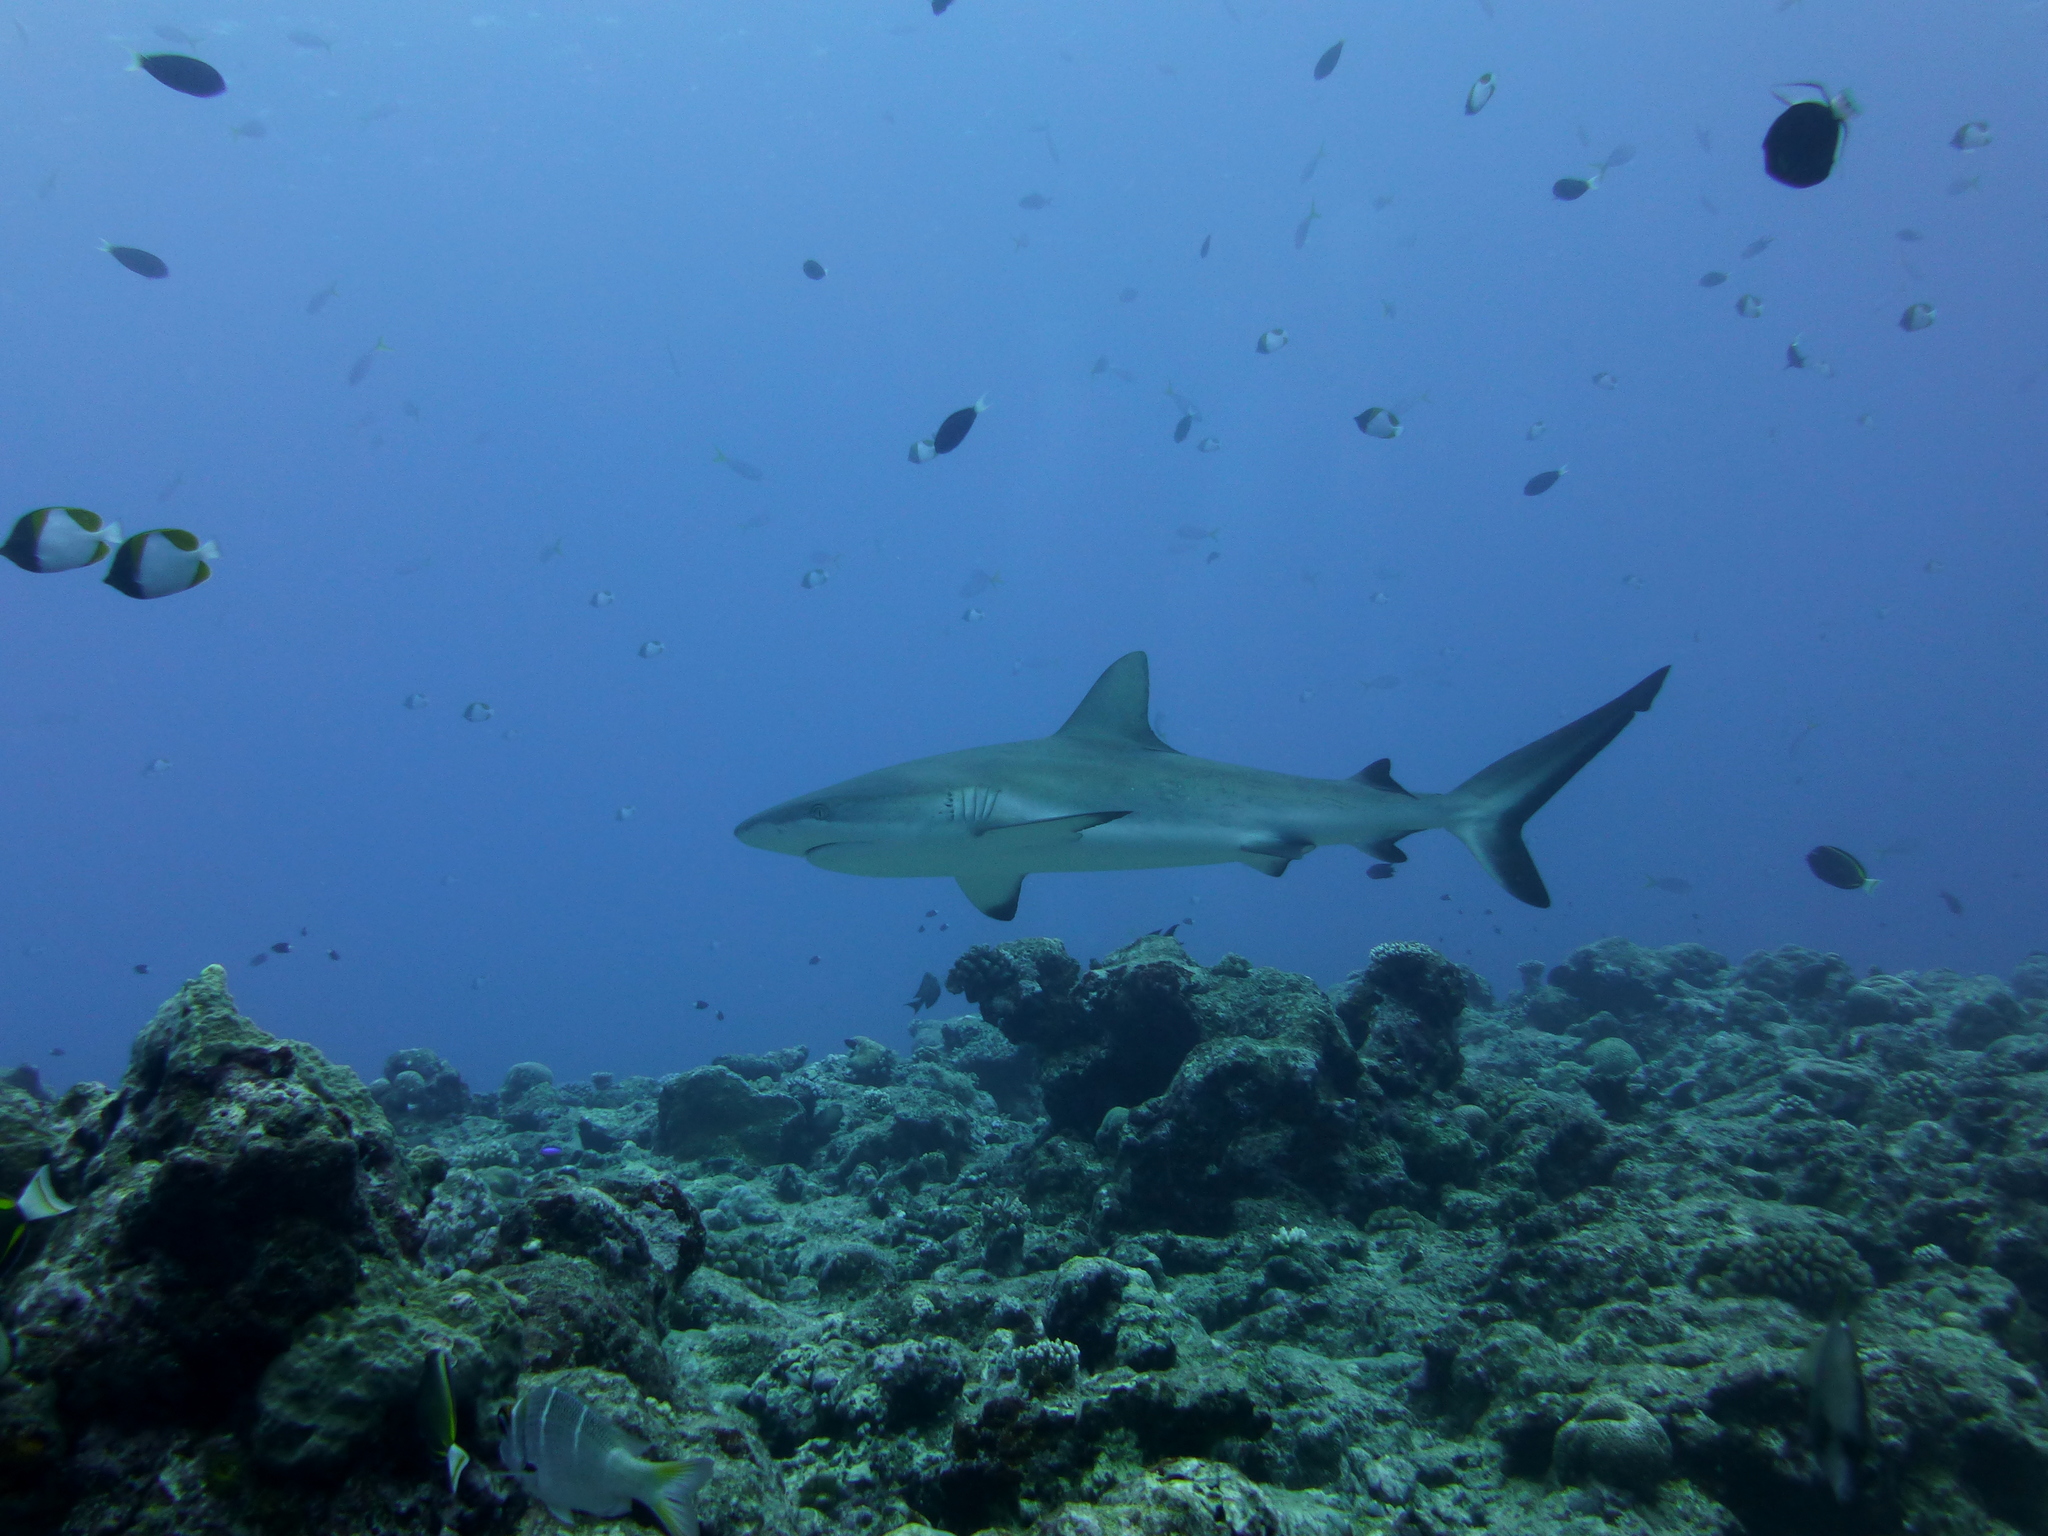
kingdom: Animalia
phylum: Chordata
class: Elasmobranchii
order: Carcharhiniformes
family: Carcharhinidae
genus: Carcharhinus
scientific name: Carcharhinus amblyrhynchos
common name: Grey reef shark
